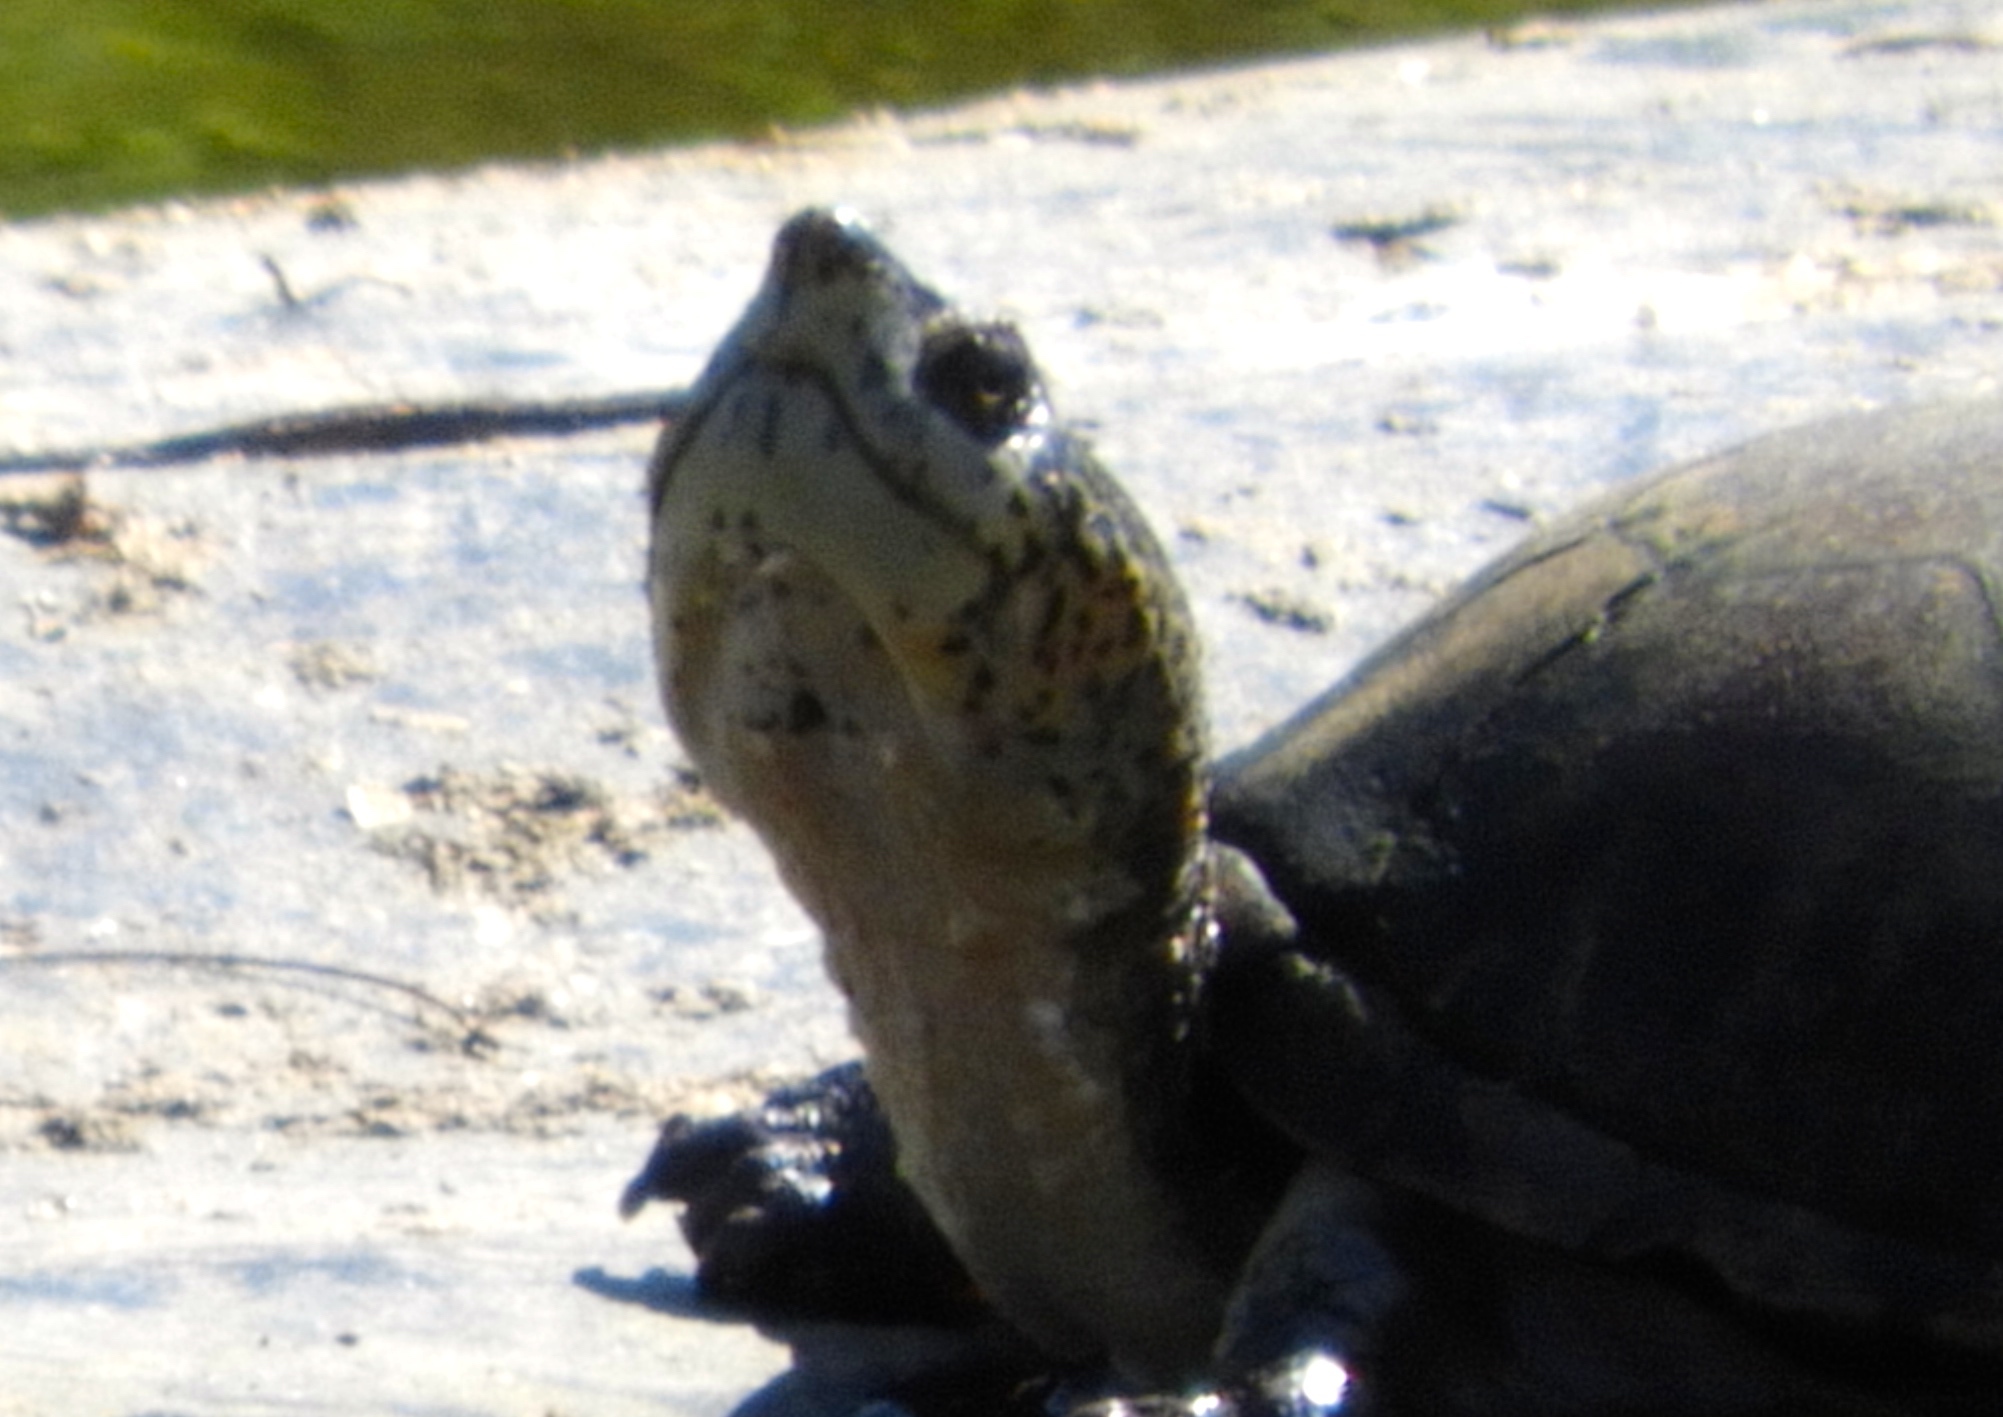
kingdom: Animalia
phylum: Chordata
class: Testudines
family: Kinosternidae
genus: Kinosternon
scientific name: Kinosternon integrum
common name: Mexican mud turtle
